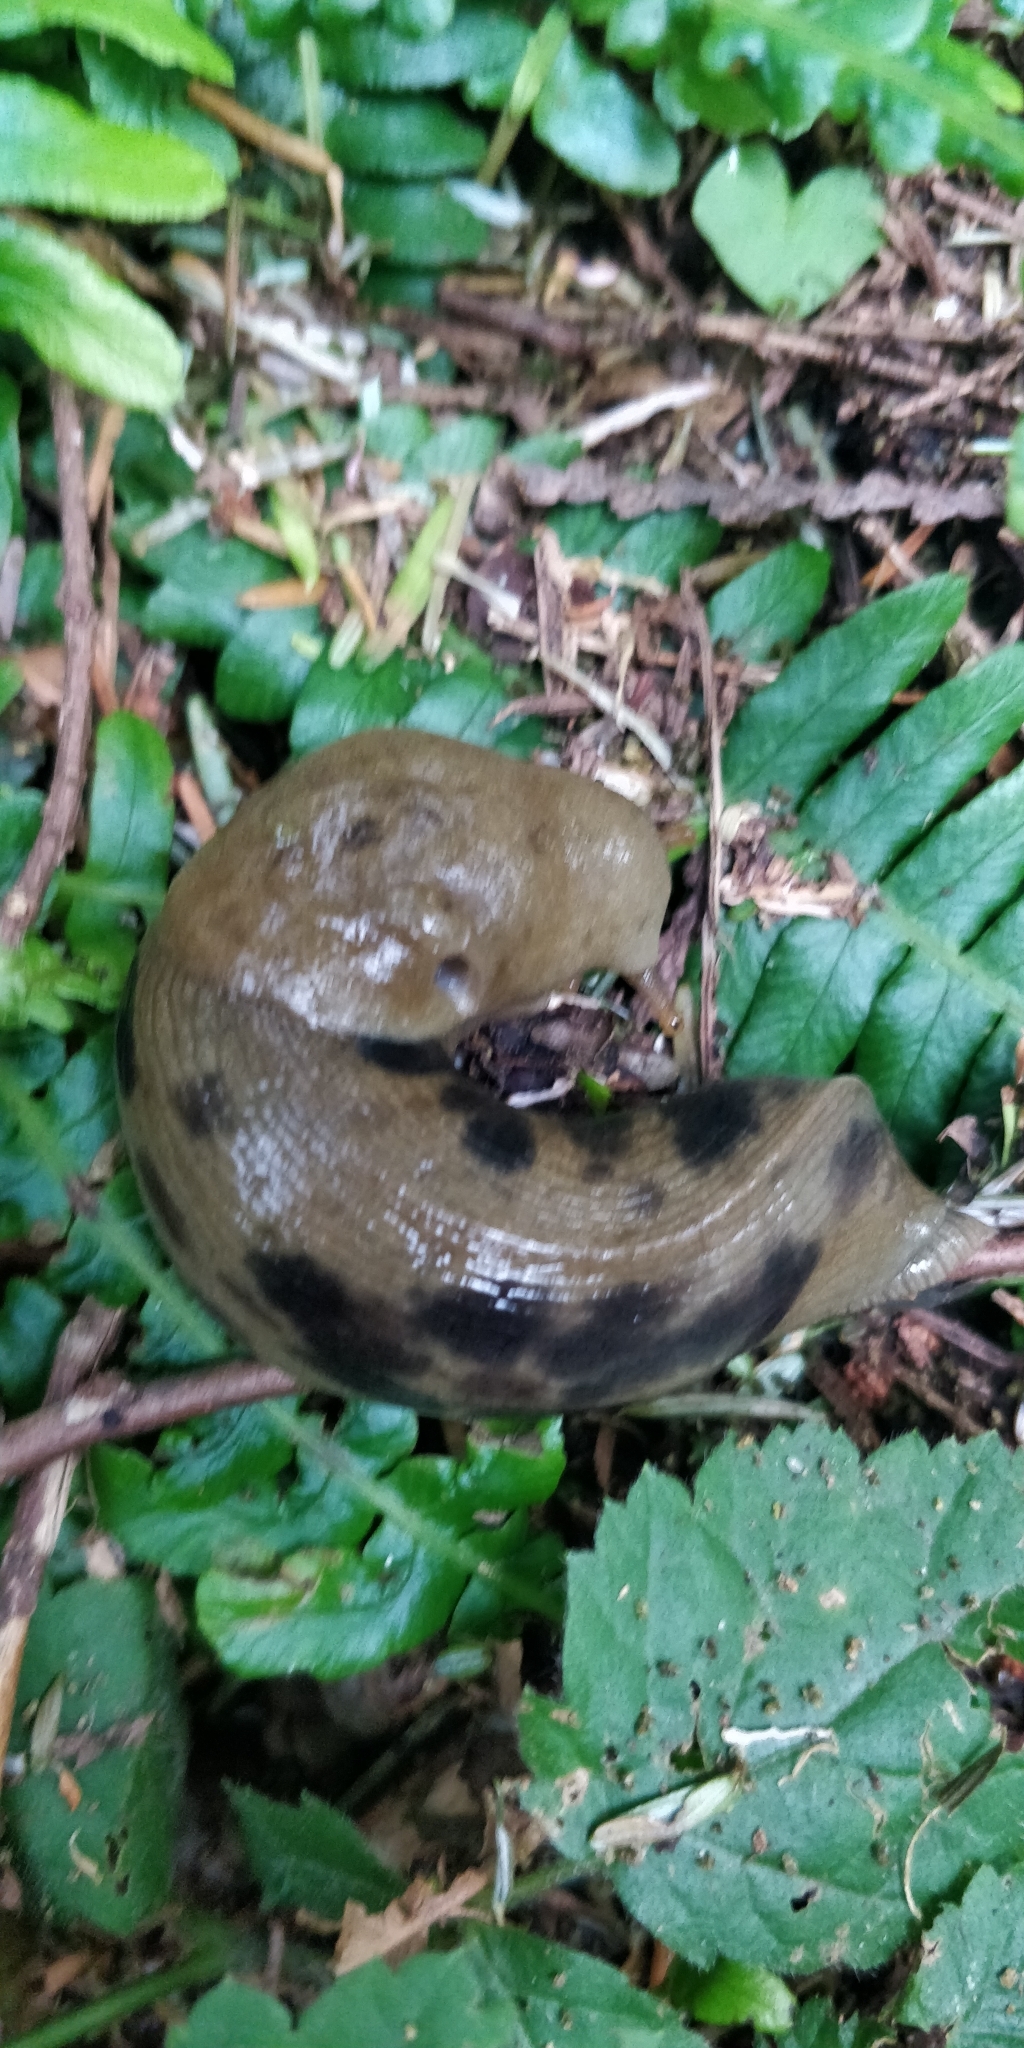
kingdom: Animalia
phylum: Mollusca
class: Gastropoda
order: Stylommatophora
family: Ariolimacidae
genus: Ariolimax
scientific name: Ariolimax columbianus
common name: Pacific banana slug
